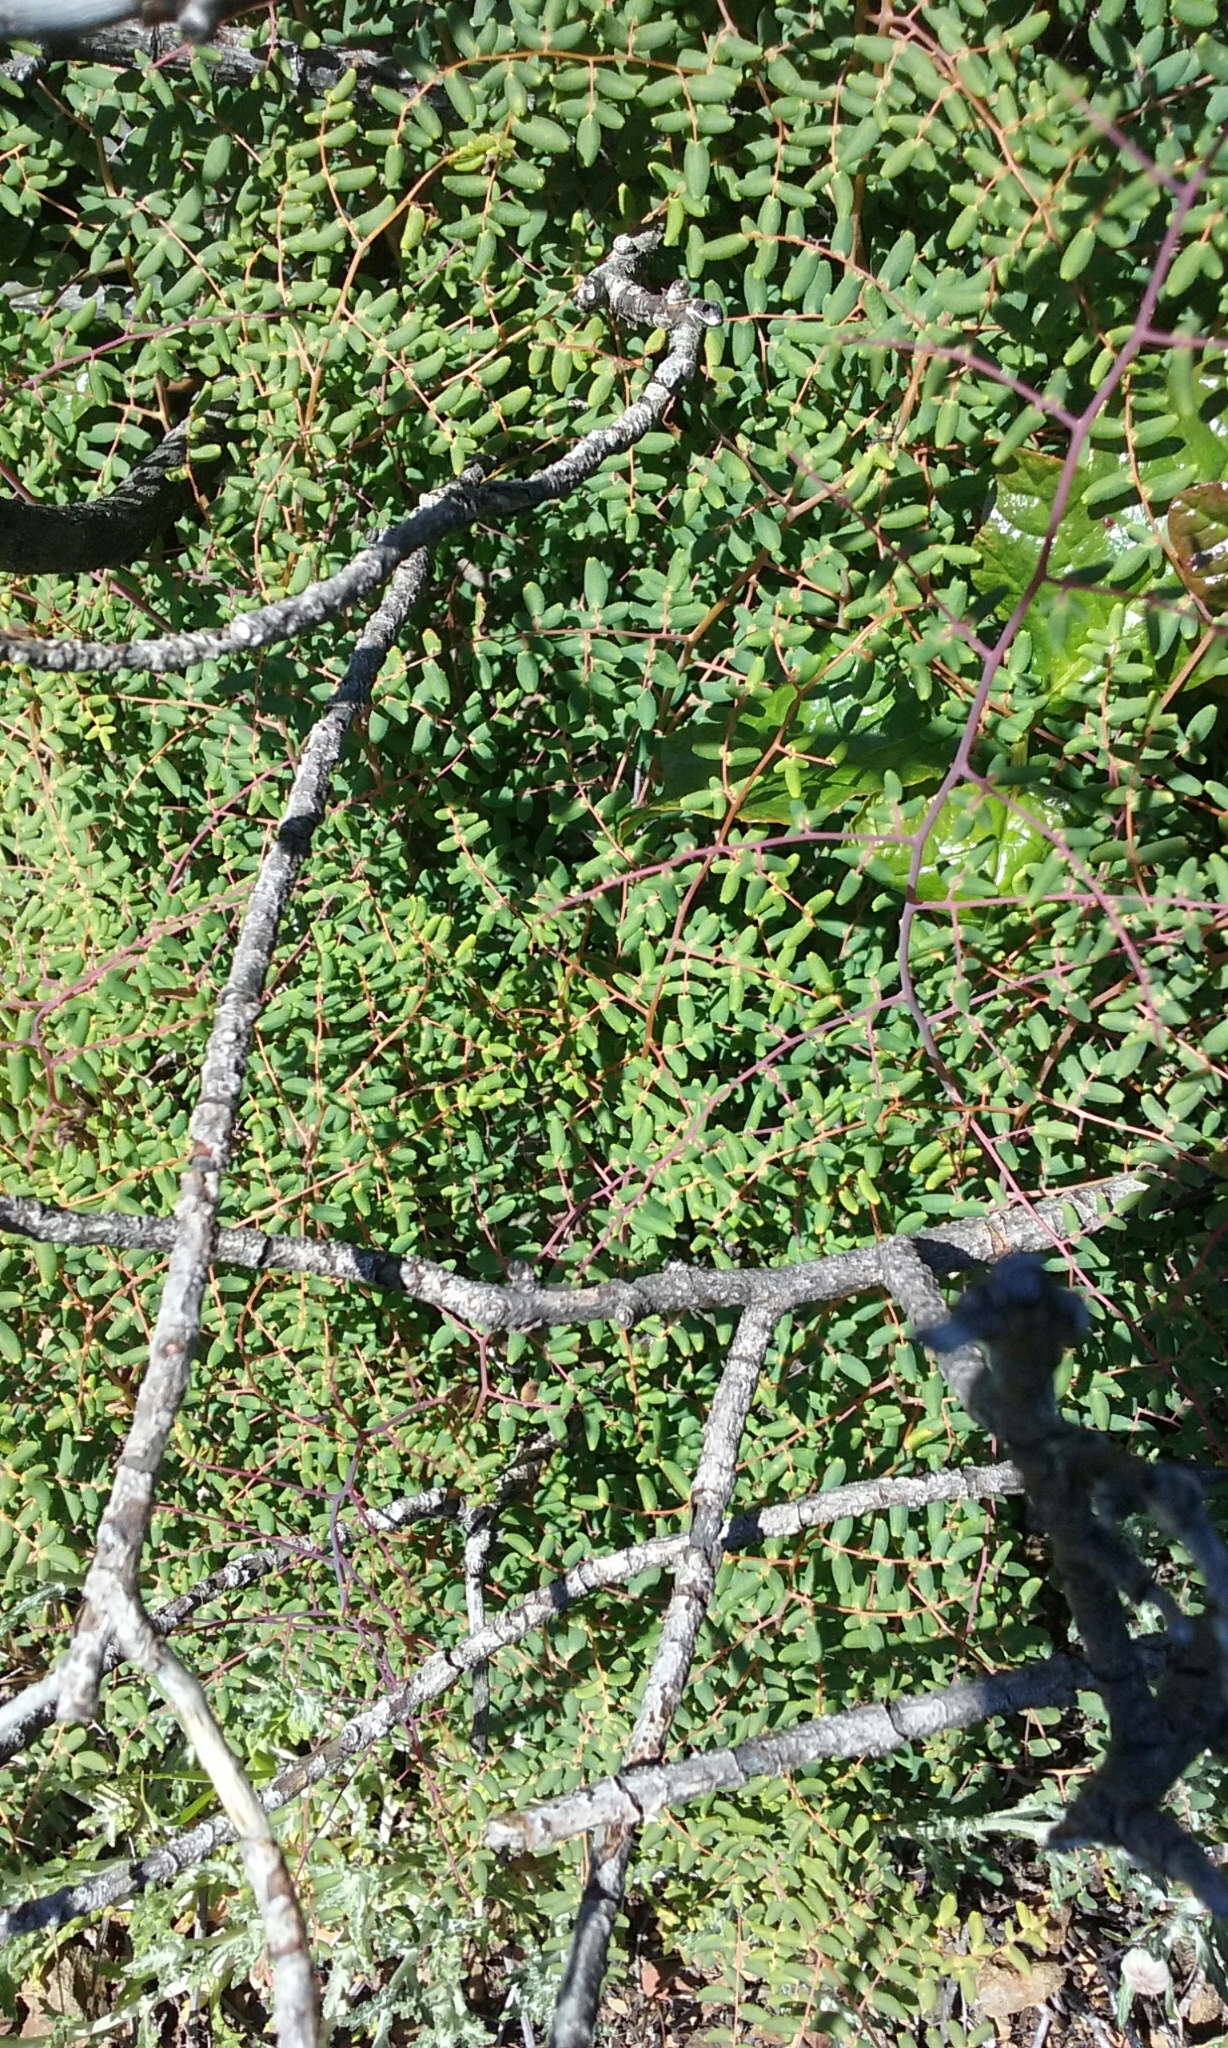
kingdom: Plantae
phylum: Tracheophyta
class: Polypodiopsida
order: Polypodiales
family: Pteridaceae
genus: Pellaea
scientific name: Pellaea andromedifolia
